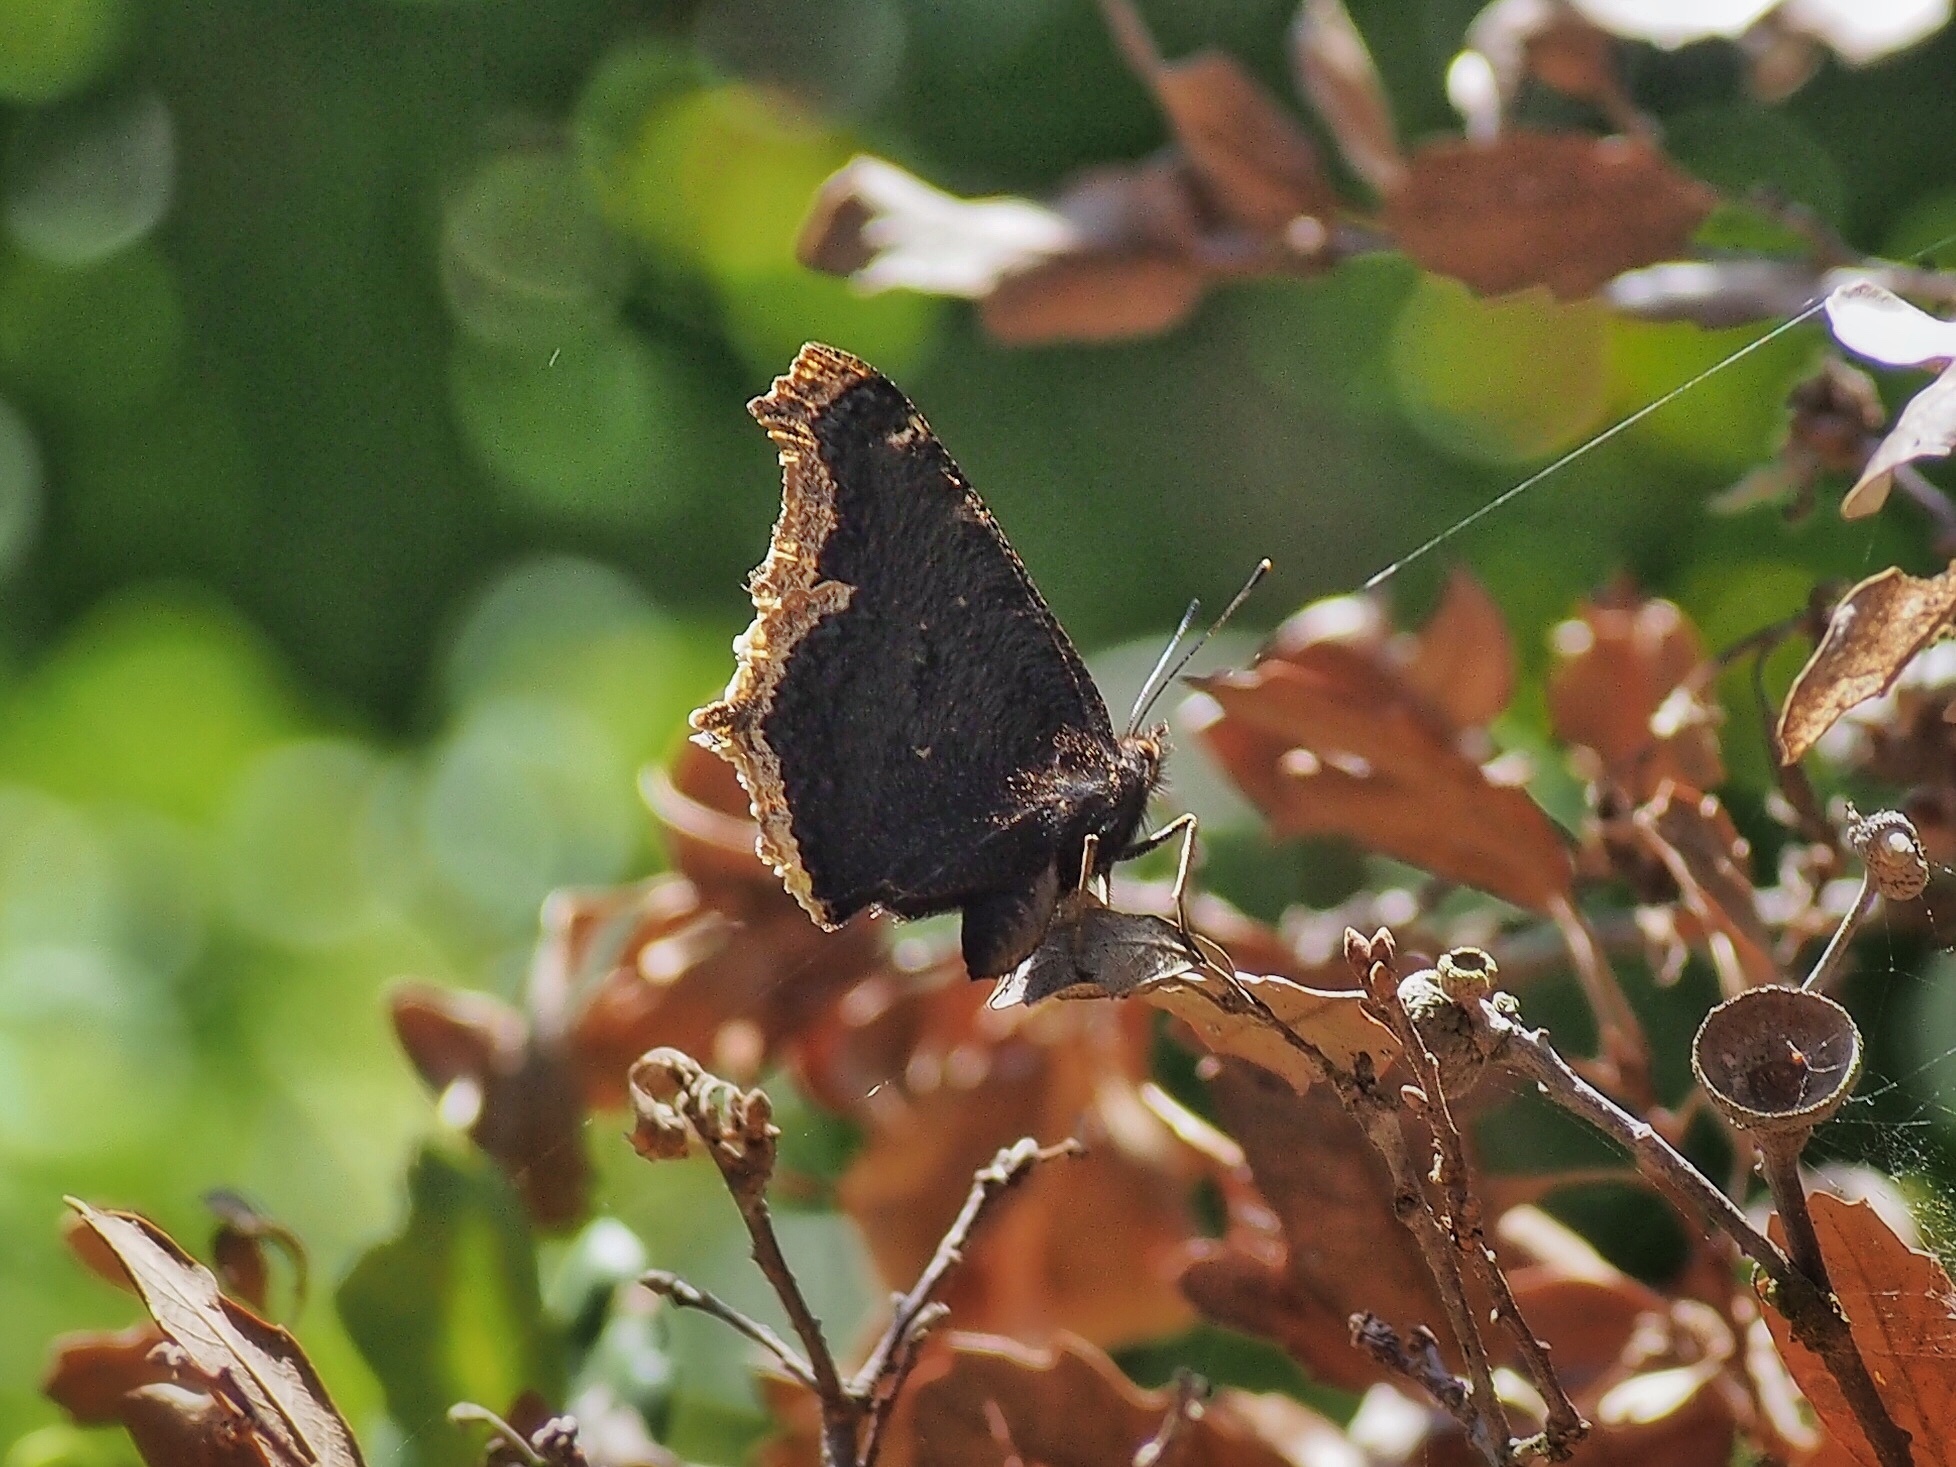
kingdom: Animalia
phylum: Arthropoda
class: Insecta
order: Lepidoptera
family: Nymphalidae
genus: Nymphalis
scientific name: Nymphalis antiopa
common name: Camberwell beauty
